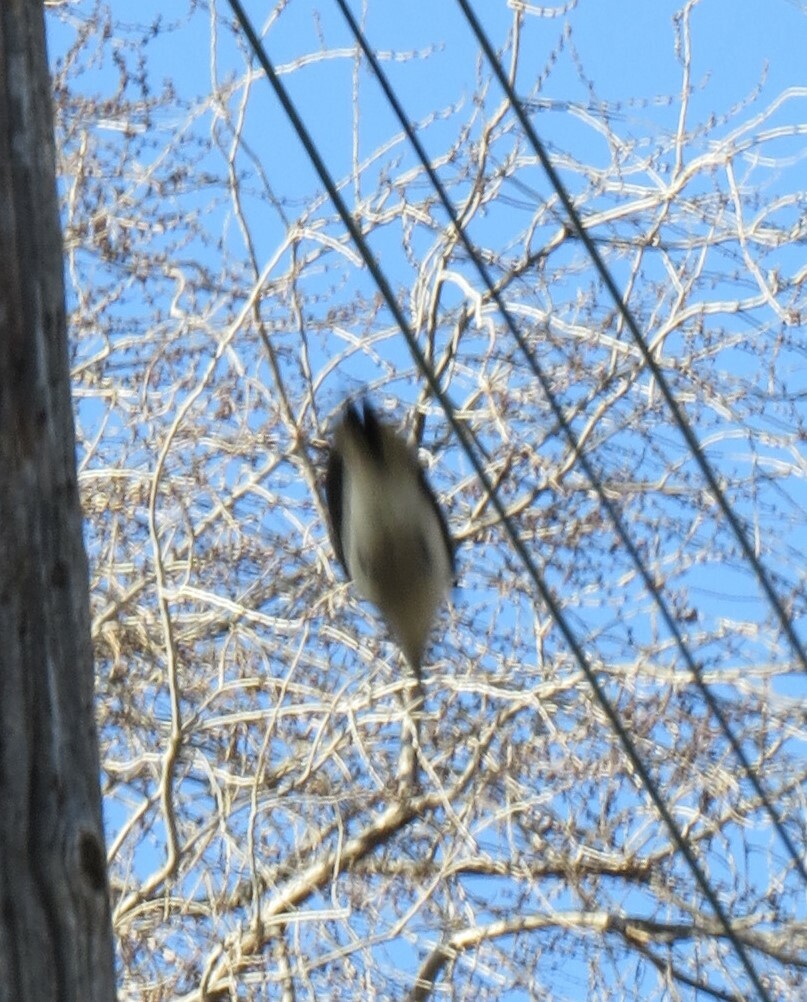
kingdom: Animalia
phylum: Chordata
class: Aves
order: Piciformes
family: Picidae
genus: Leuconotopicus
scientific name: Leuconotopicus villosus
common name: Hairy woodpecker
